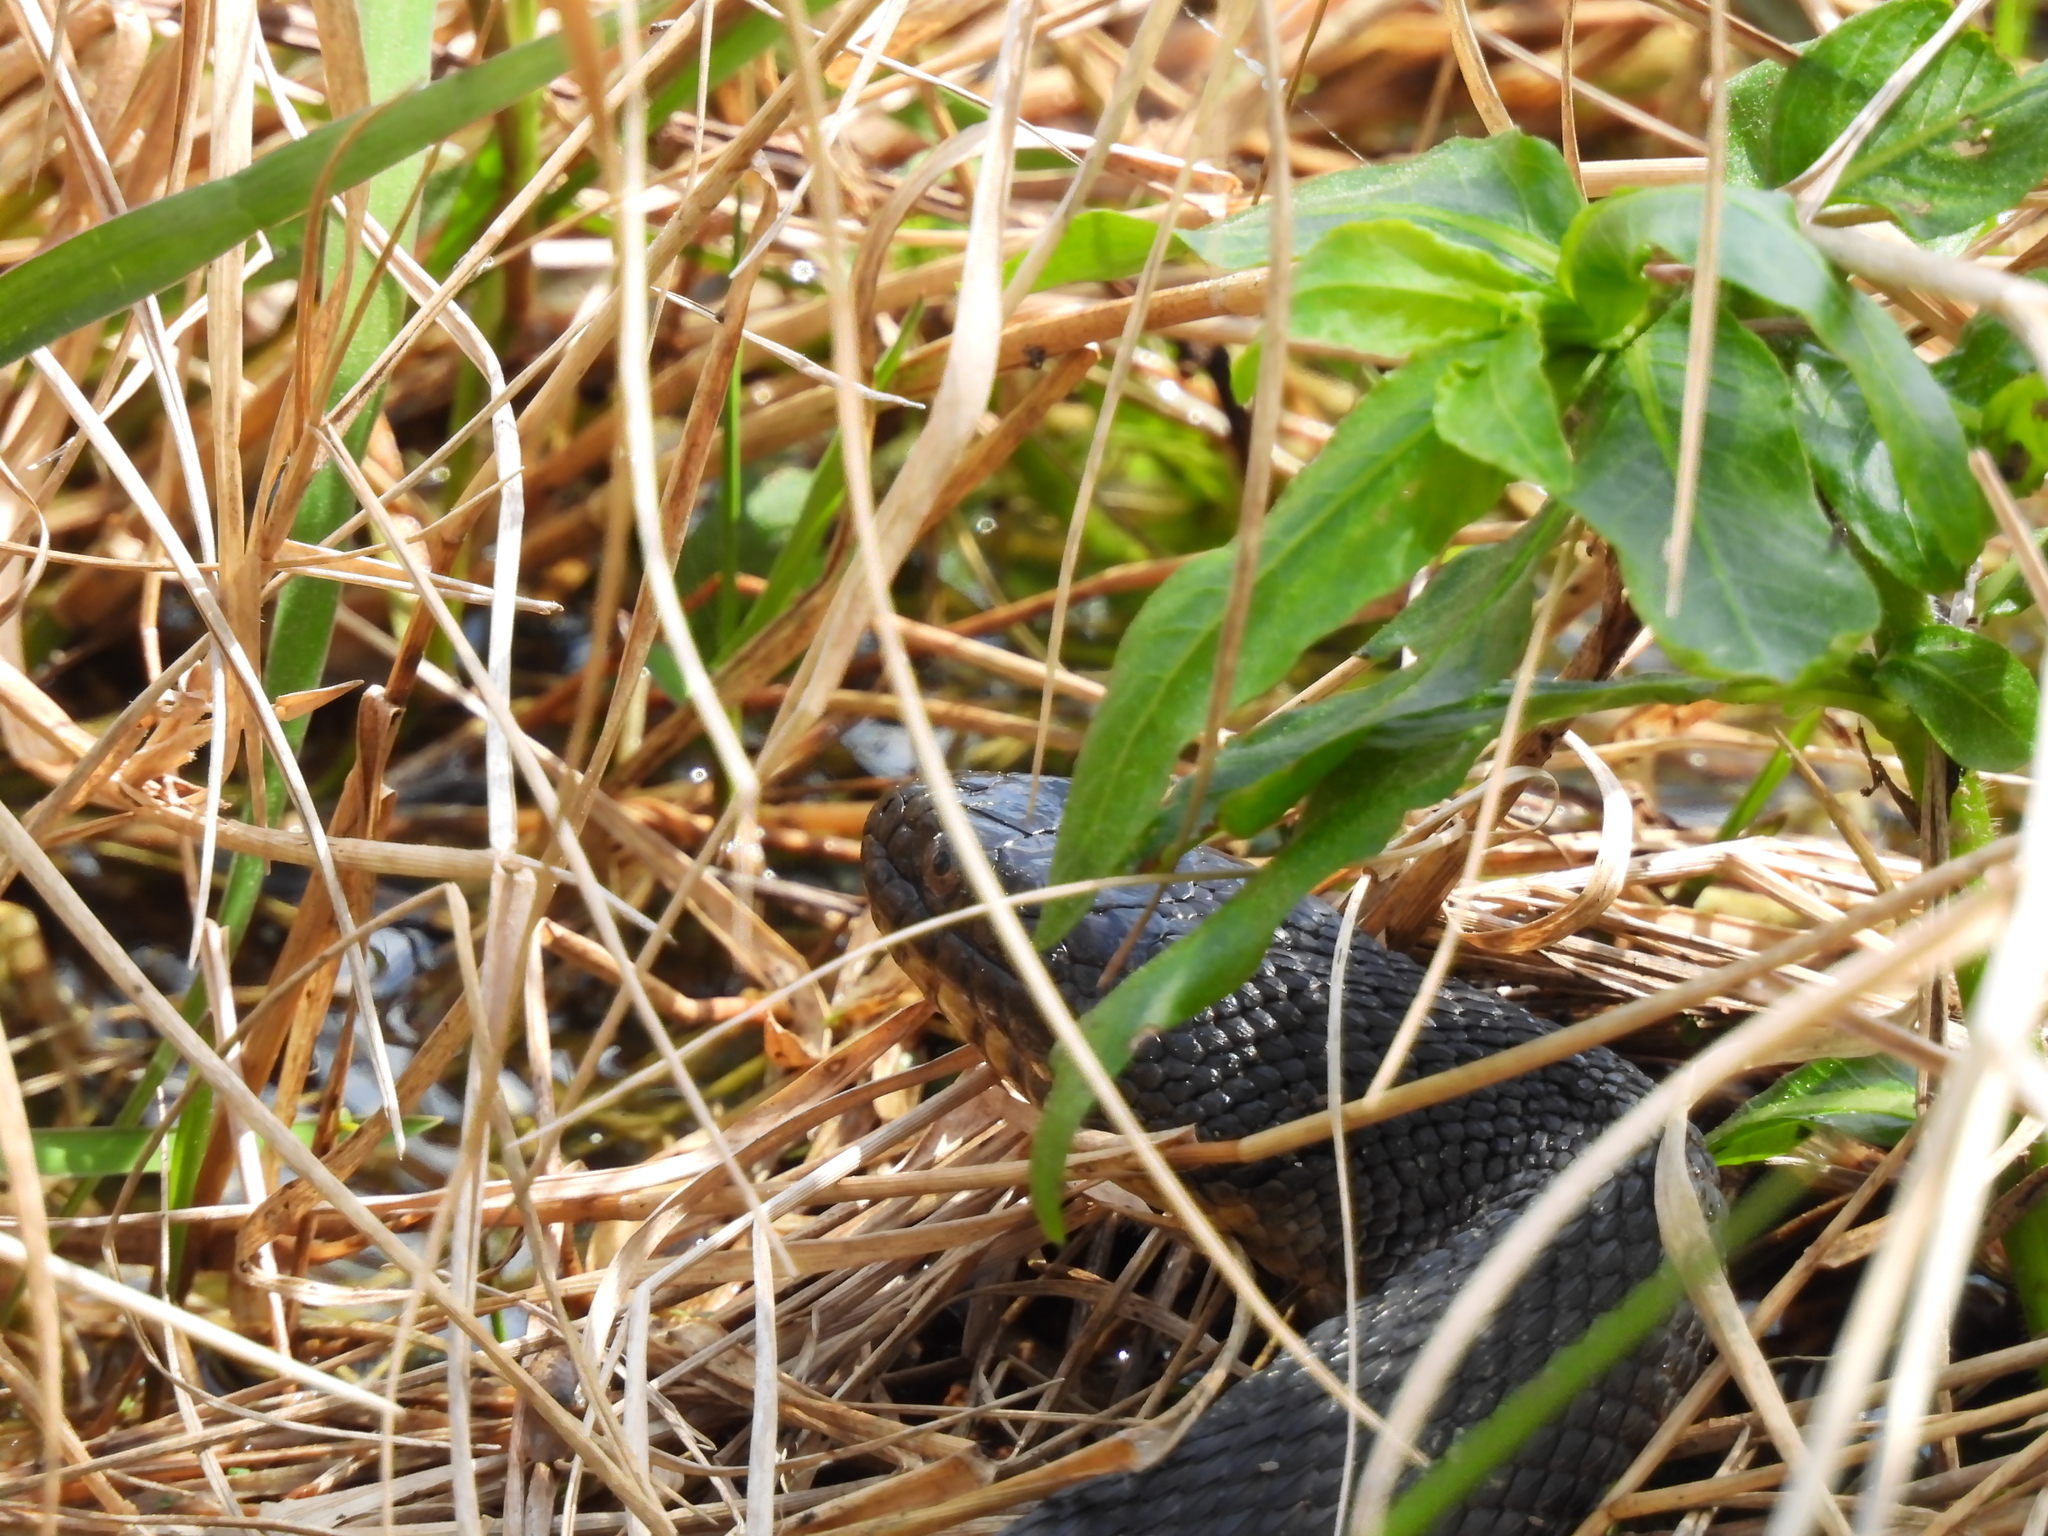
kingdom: Animalia
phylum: Chordata
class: Squamata
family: Colubridae
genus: Nerodia
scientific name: Nerodia cyclopion
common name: Mississippi green water snake
